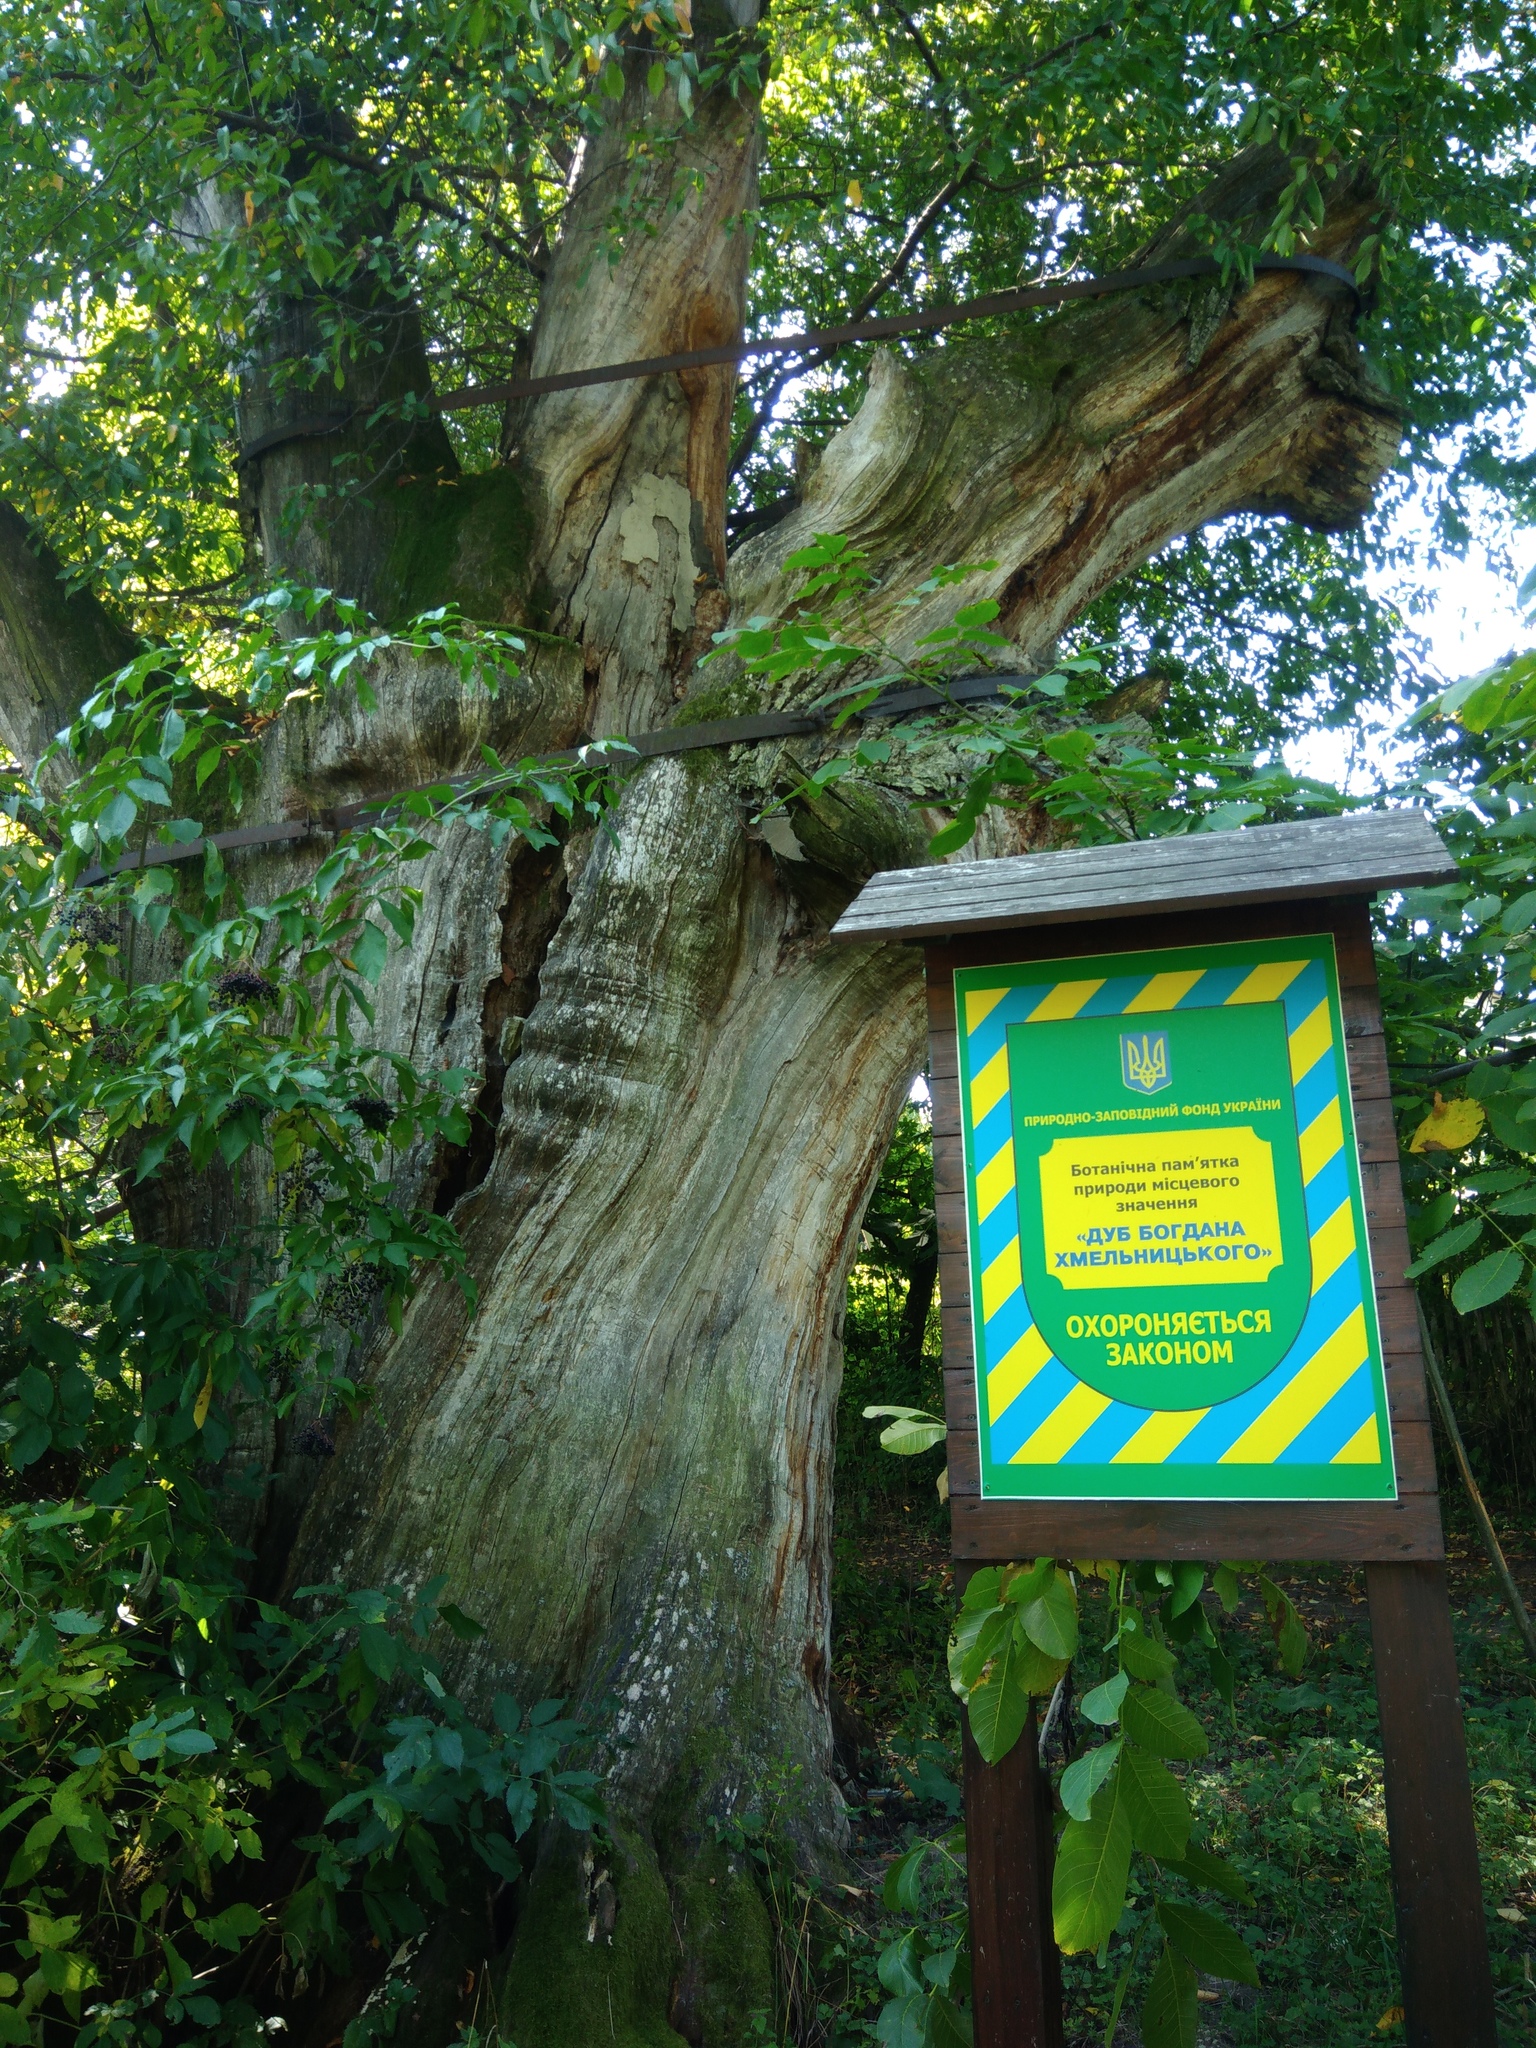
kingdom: Plantae
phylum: Tracheophyta
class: Magnoliopsida
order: Fagales
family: Fagaceae
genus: Quercus
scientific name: Quercus robur
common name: Pedunculate oak
